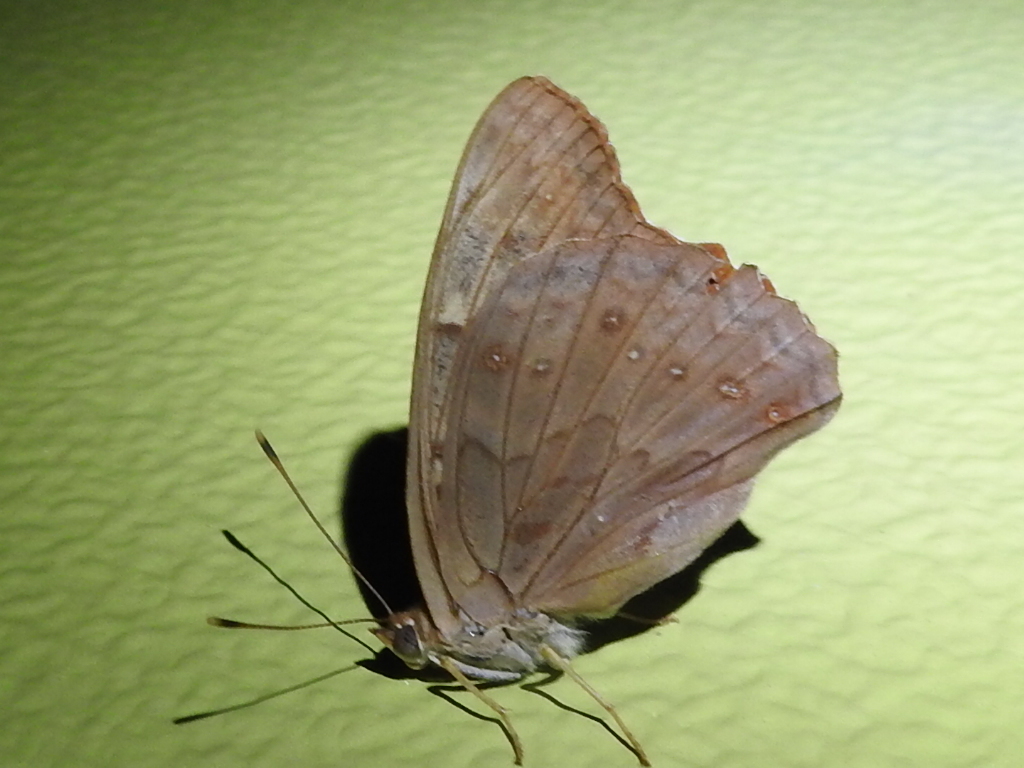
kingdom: Animalia
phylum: Arthropoda
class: Insecta
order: Lepidoptera
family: Nymphalidae
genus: Asterocampa
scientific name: Asterocampa clyton
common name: Tawny emperor
